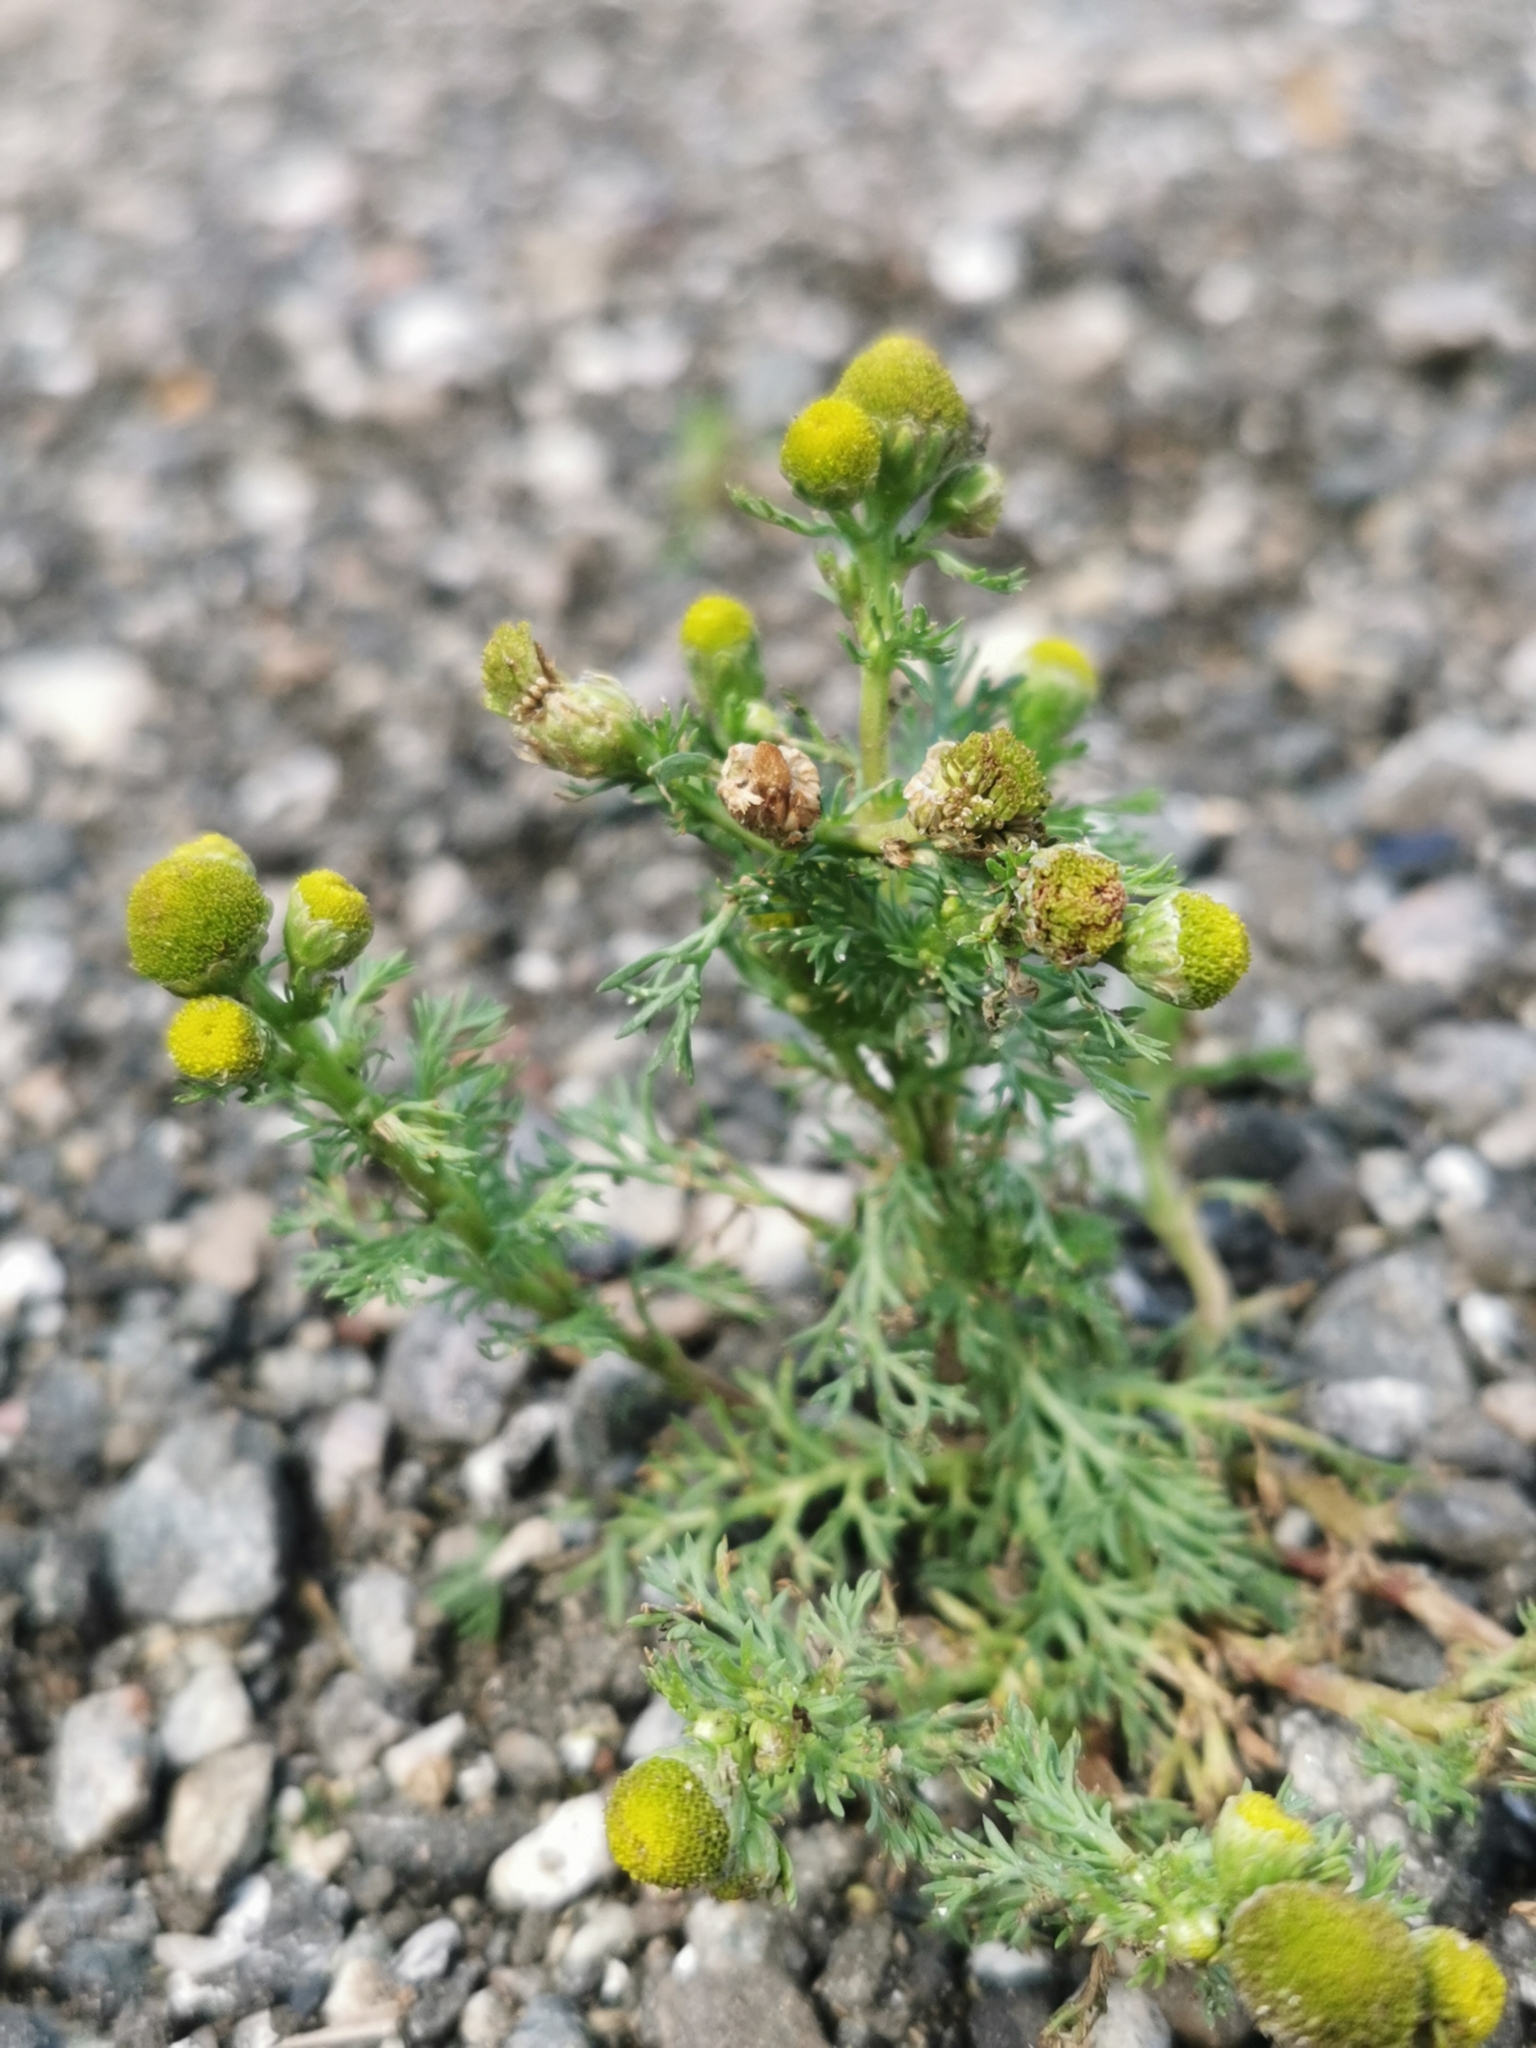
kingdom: Plantae
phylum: Tracheophyta
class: Magnoliopsida
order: Asterales
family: Asteraceae
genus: Matricaria
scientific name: Matricaria discoidea
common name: Disc mayweed
